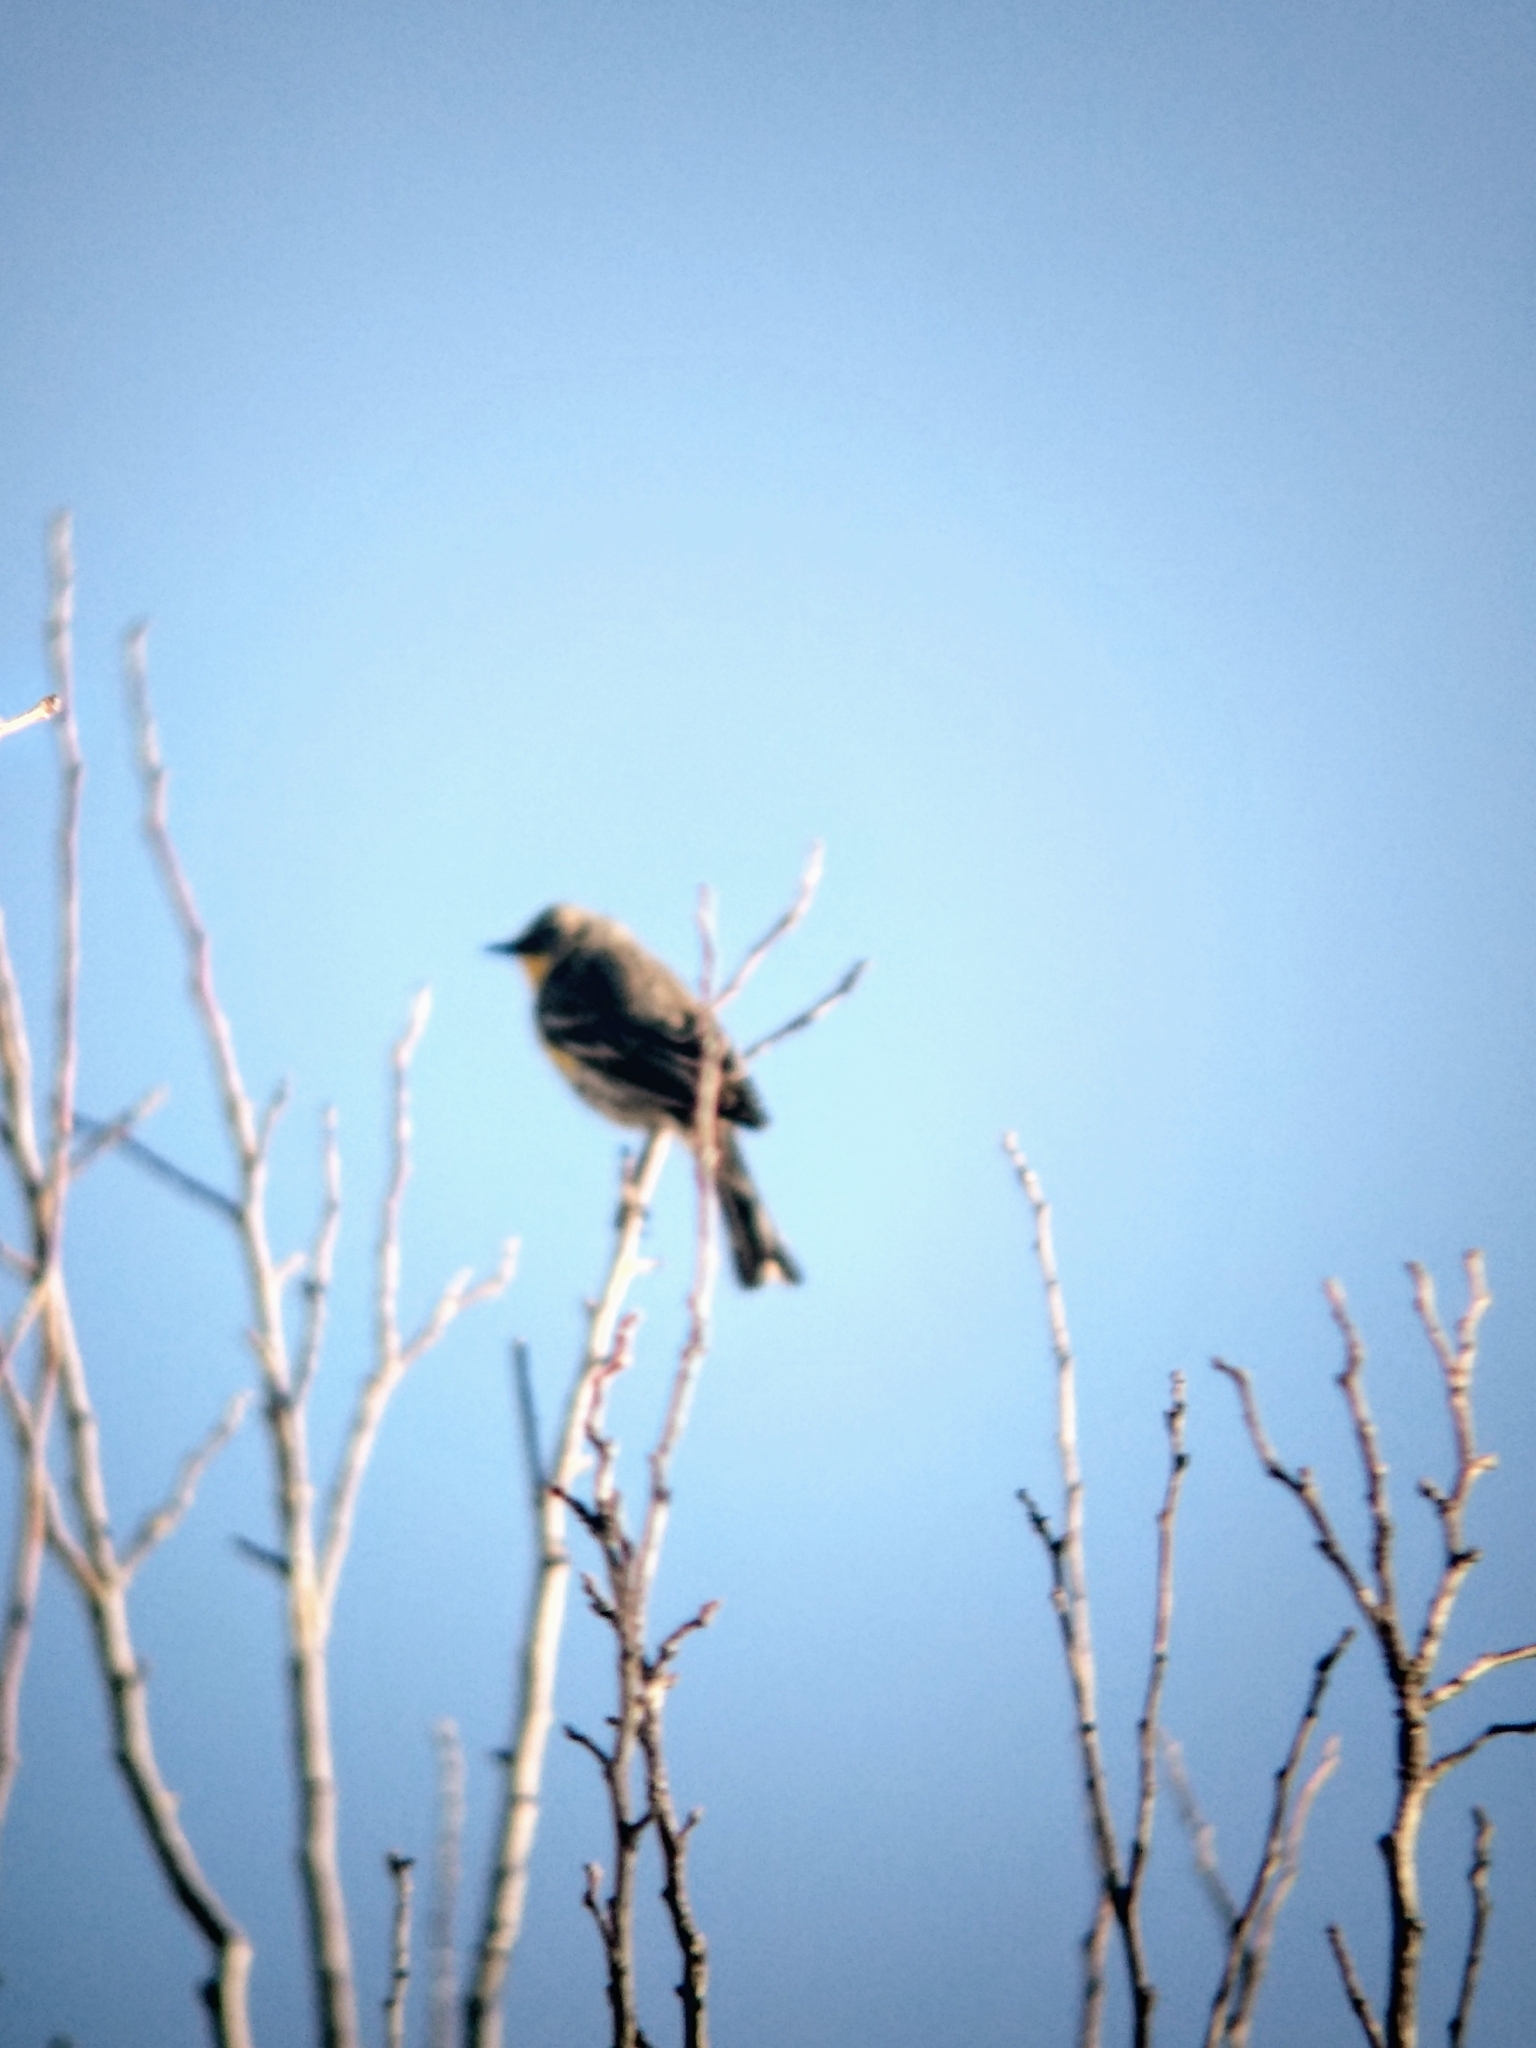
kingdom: Animalia
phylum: Chordata
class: Aves
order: Passeriformes
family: Parulidae
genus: Setophaga
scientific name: Setophaga coronata
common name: Myrtle warbler
